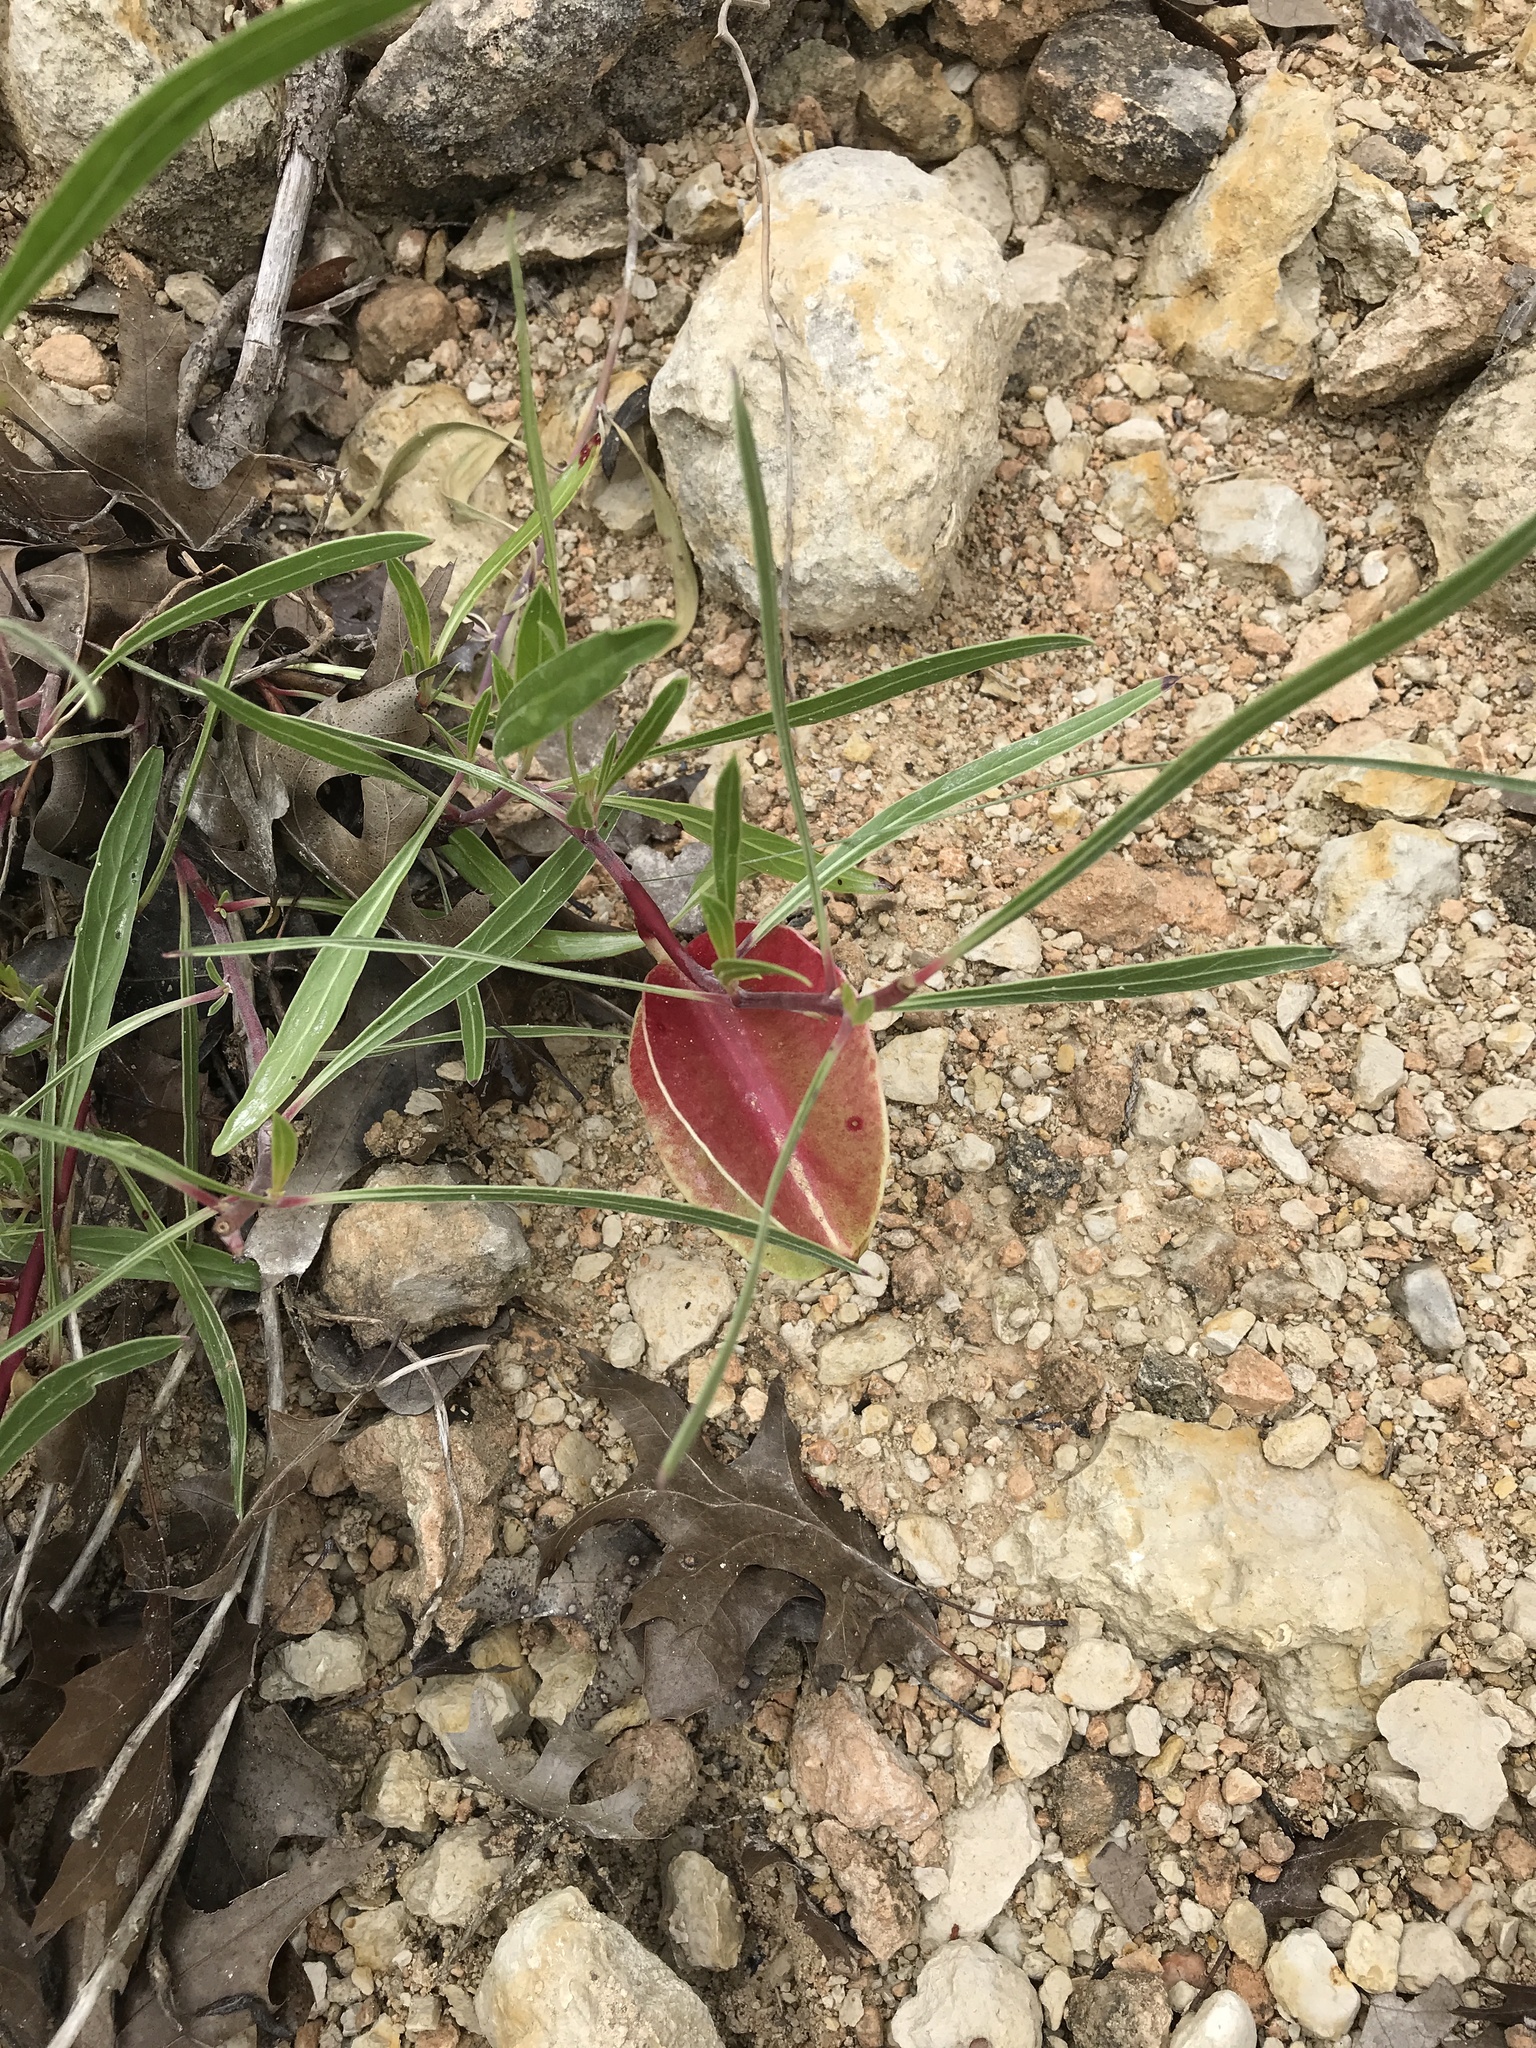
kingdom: Plantae
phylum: Tracheophyta
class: Magnoliopsida
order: Myrtales
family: Onagraceae
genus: Oenothera
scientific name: Oenothera macrocarpa
